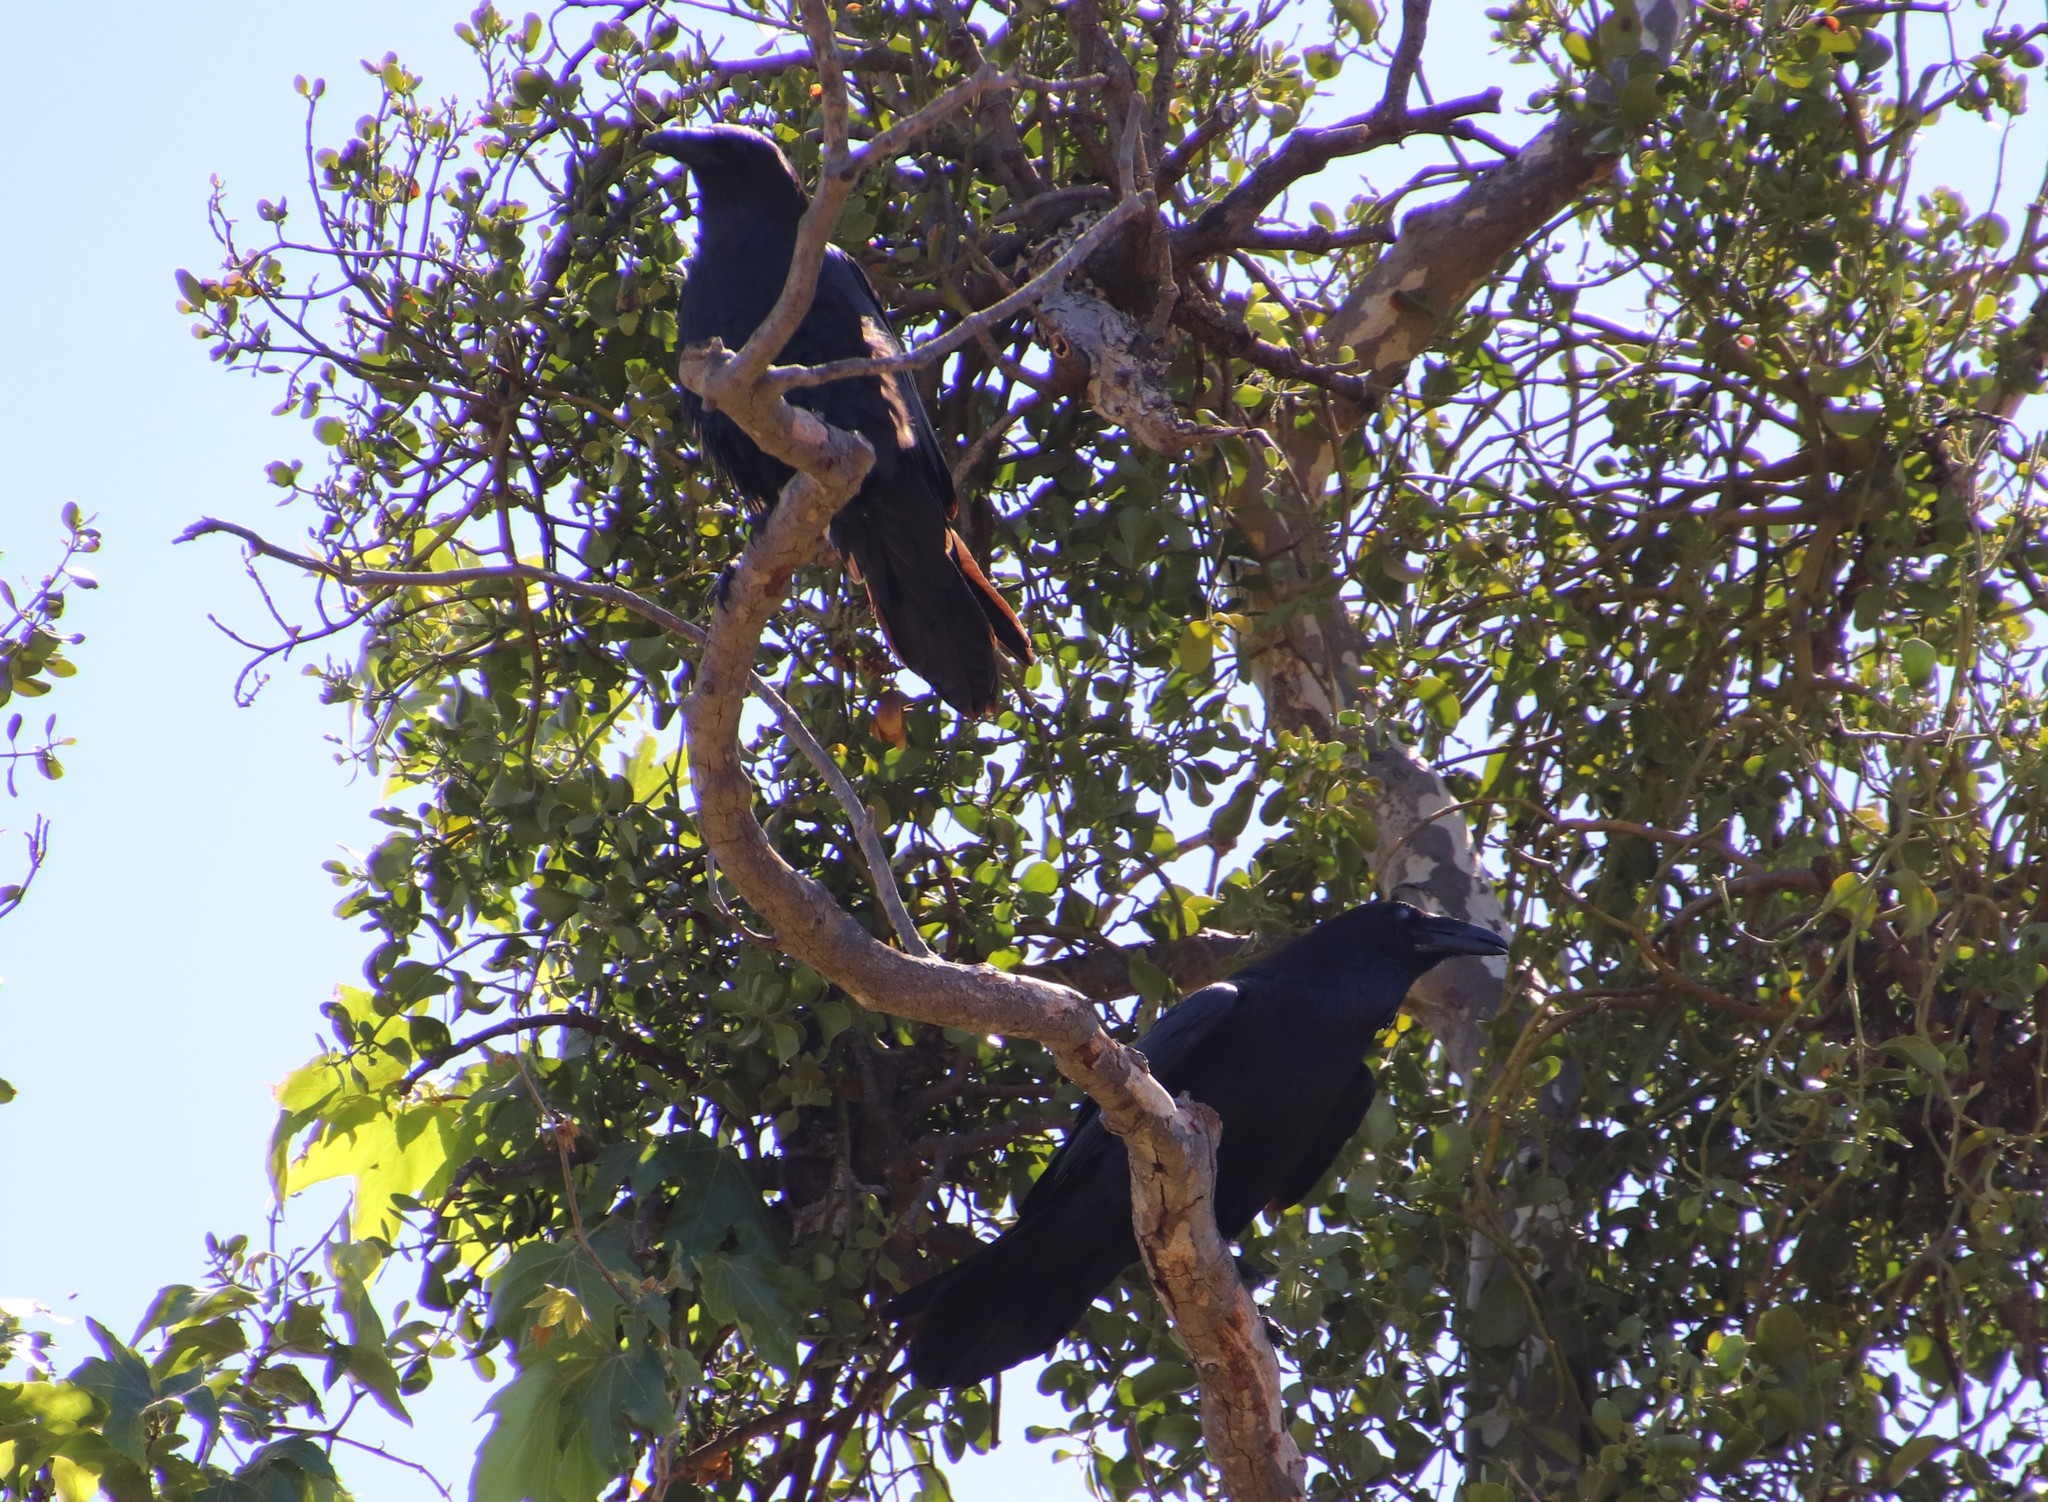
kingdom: Animalia
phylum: Chordata
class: Aves
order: Passeriformes
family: Corvidae
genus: Corvus
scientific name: Corvus corax
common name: Common raven
